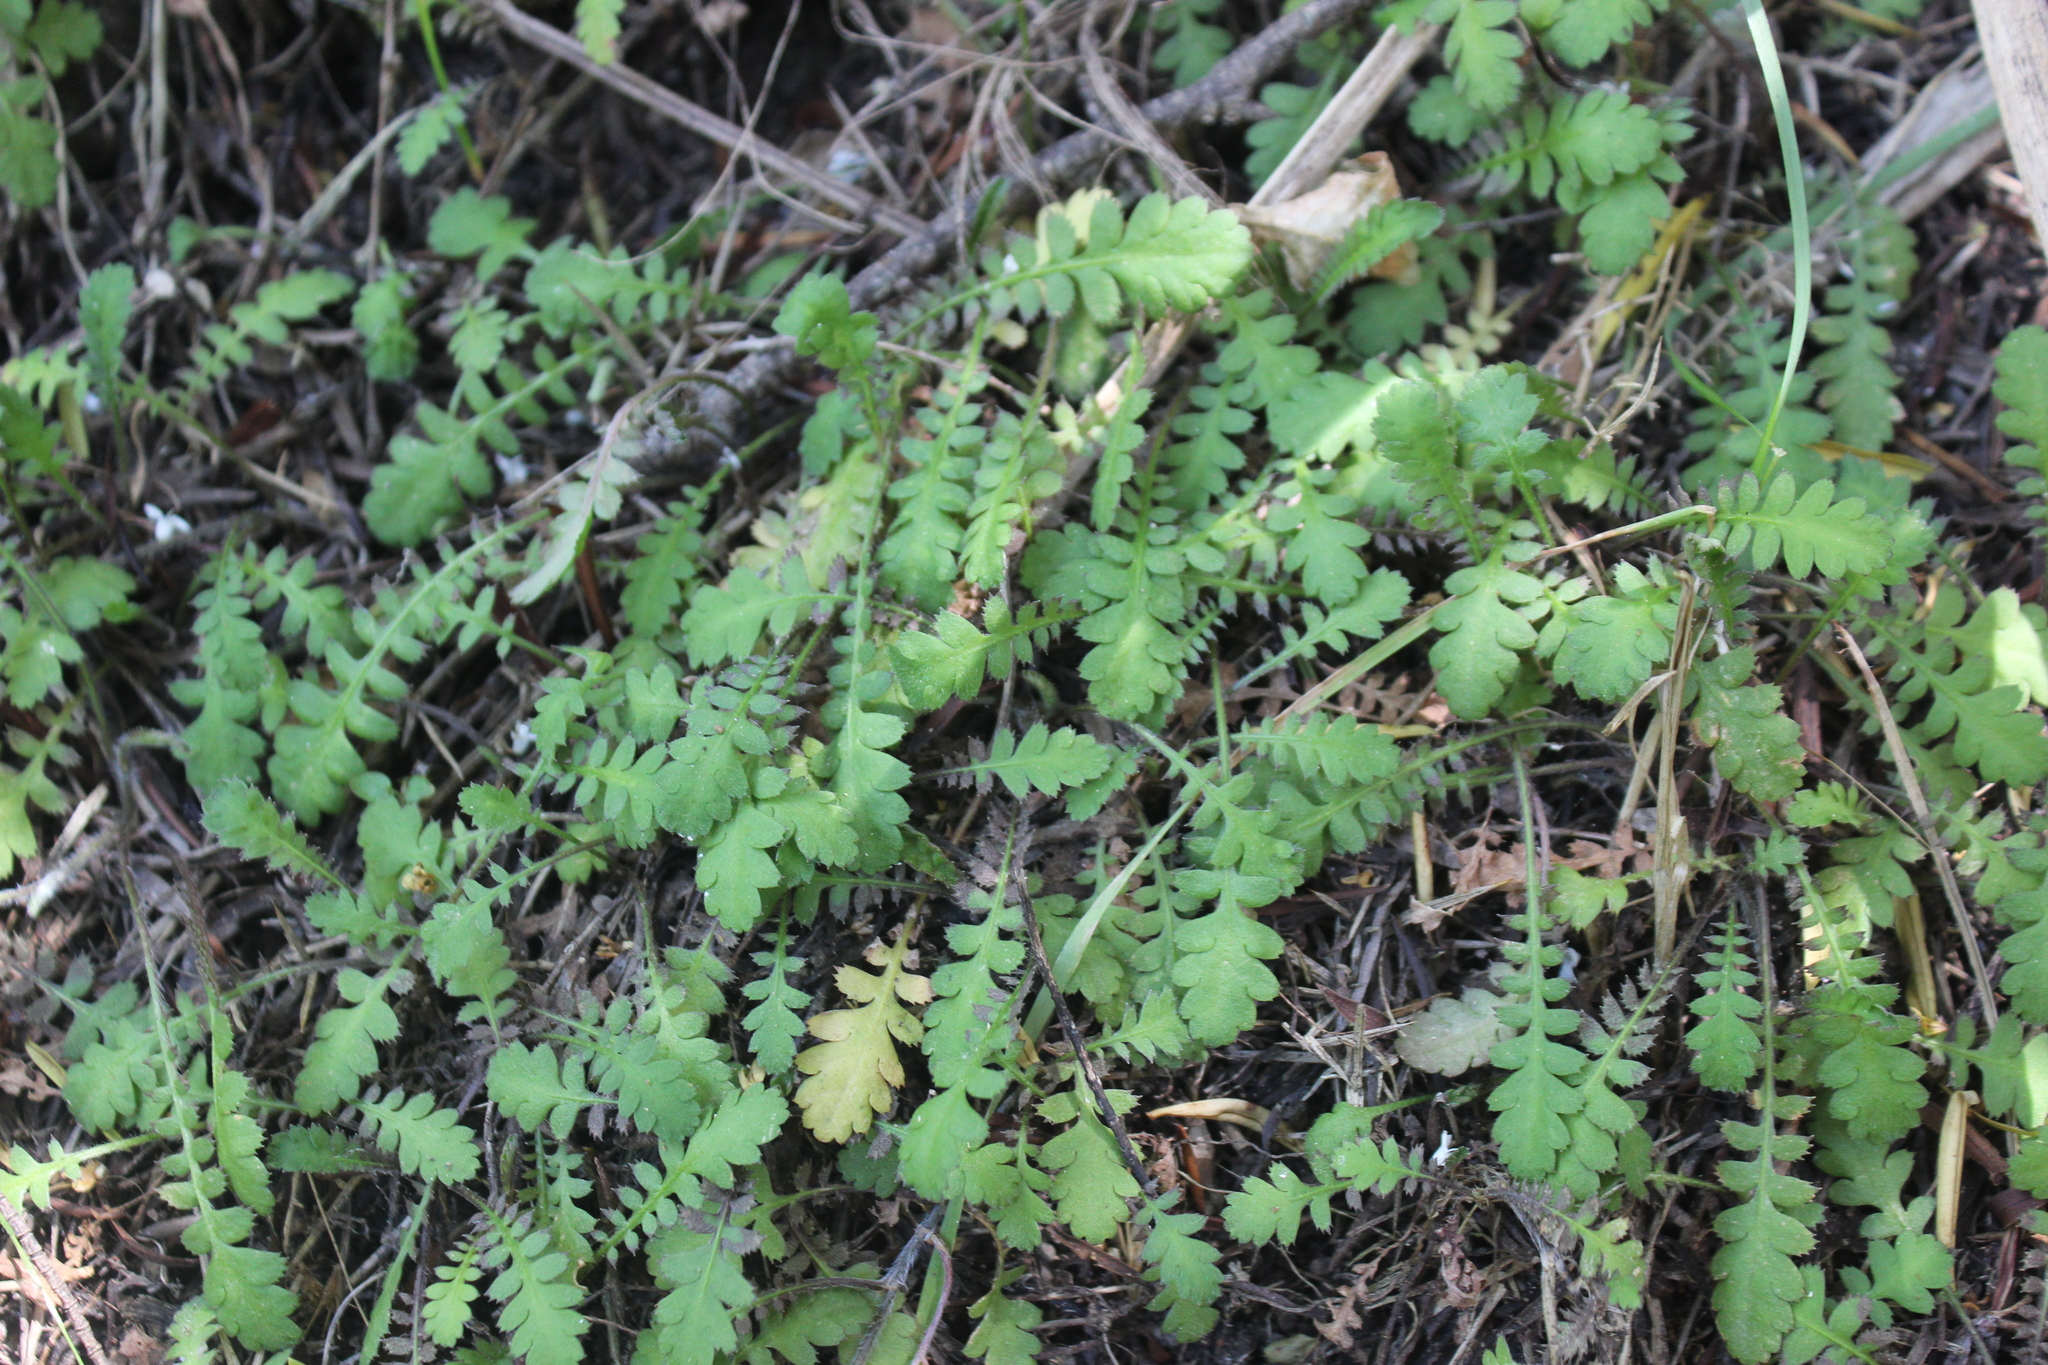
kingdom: Plantae
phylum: Tracheophyta
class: Magnoliopsida
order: Asterales
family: Asteraceae
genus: Leptinella
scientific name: Leptinella squalida
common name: New zealand brass-buttons
